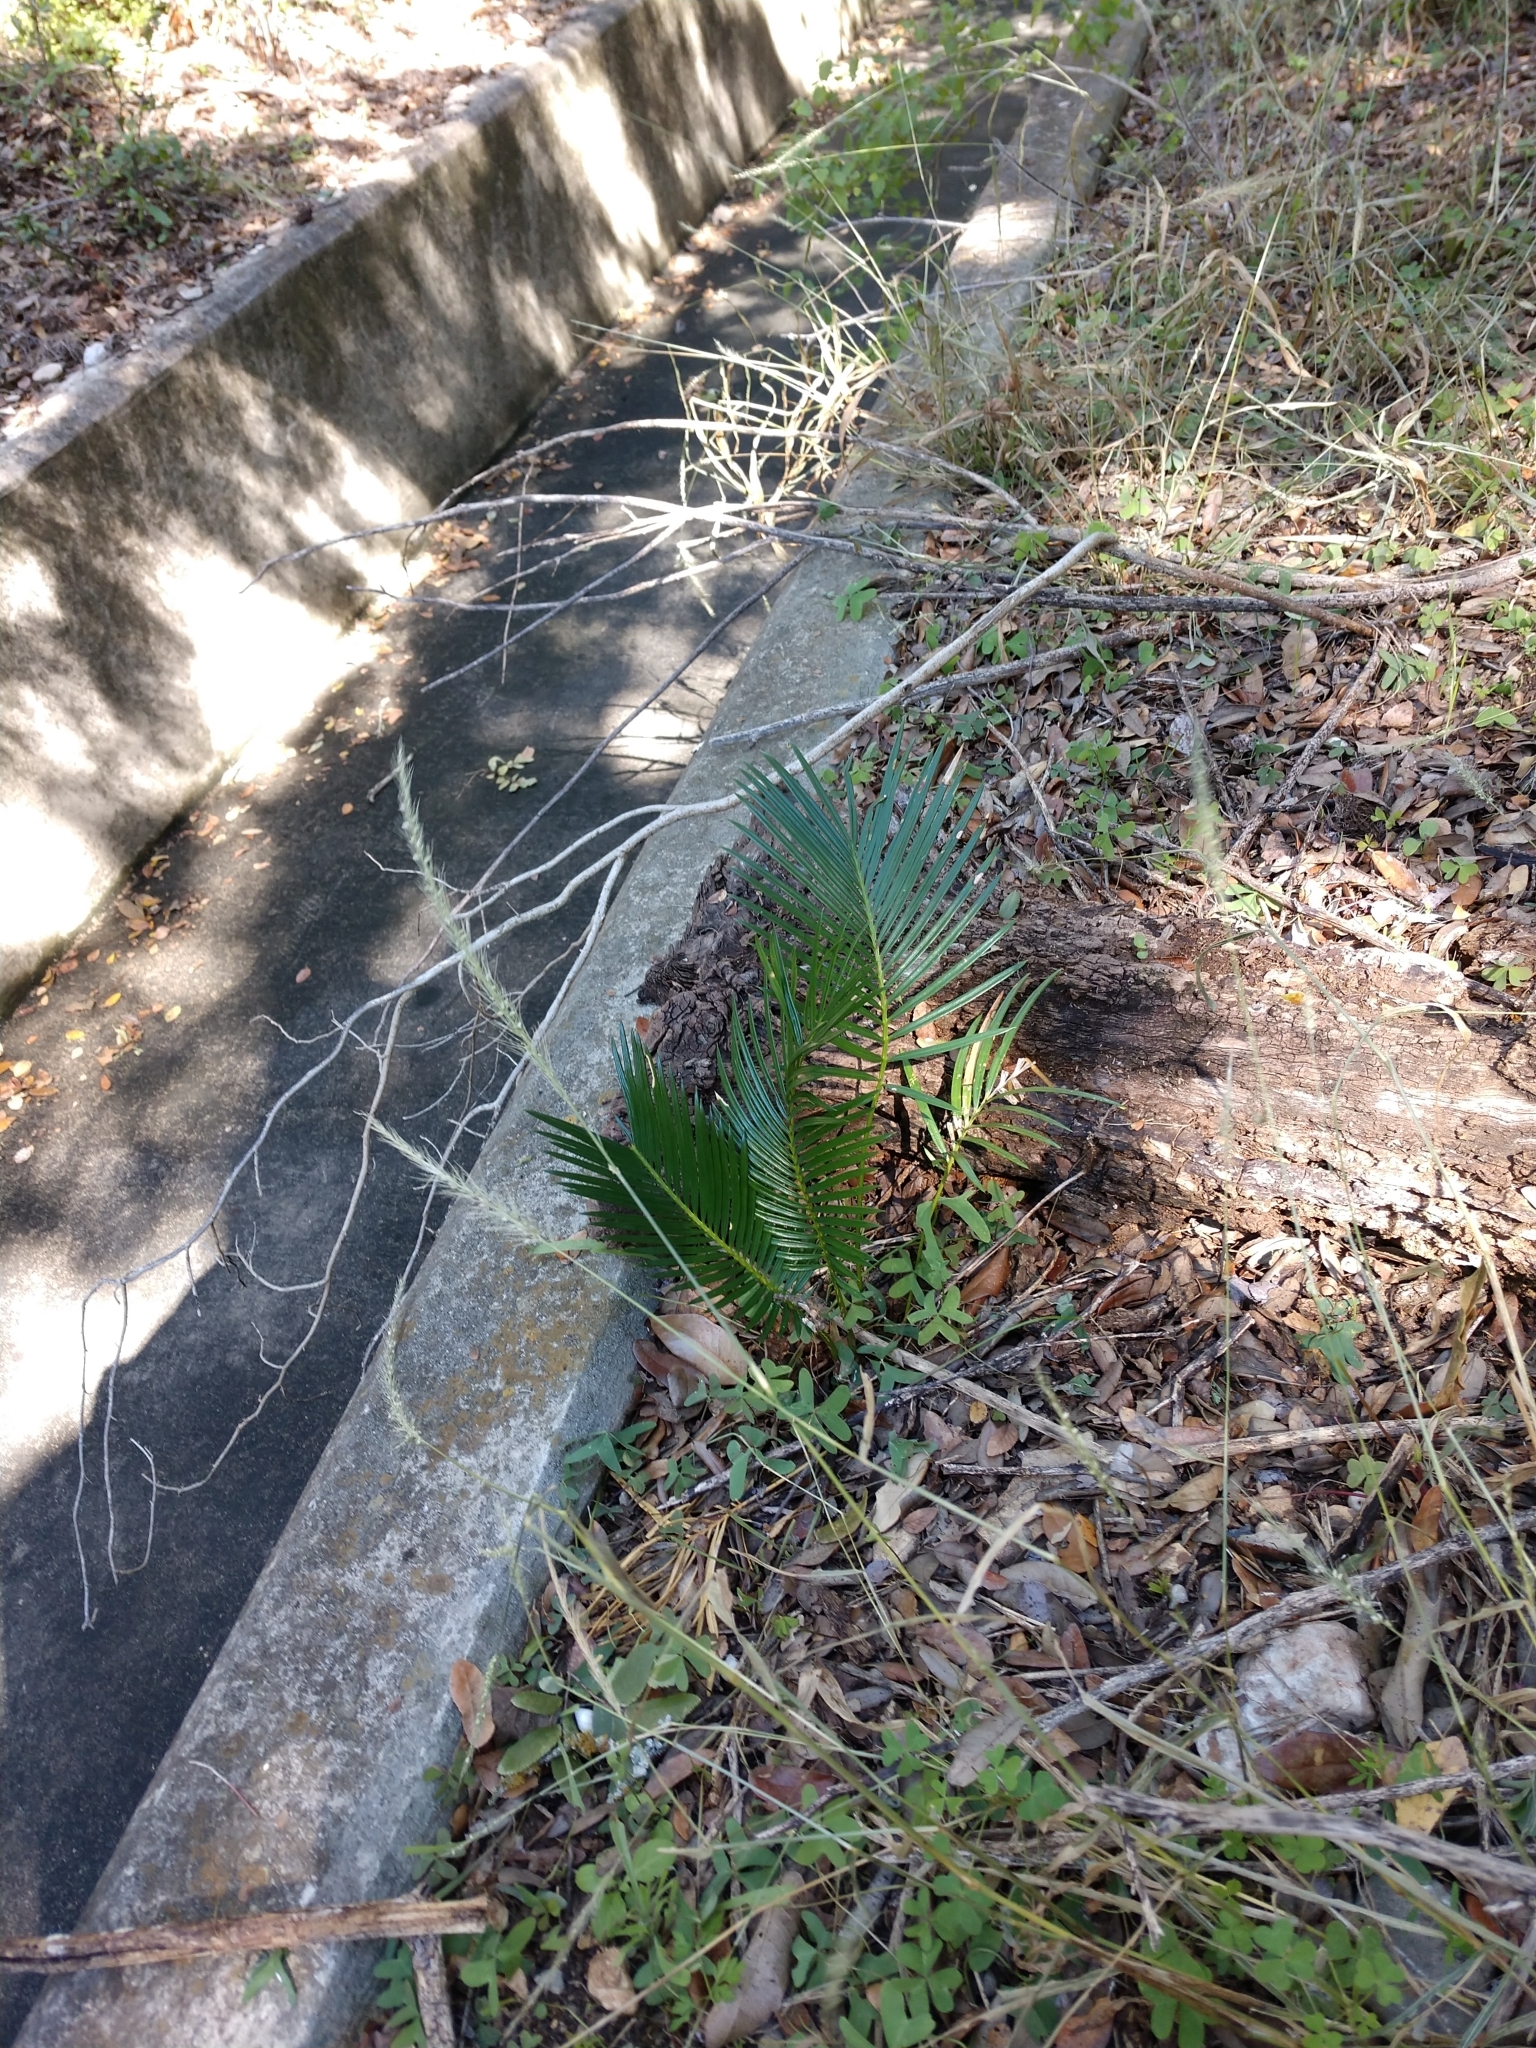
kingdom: Plantae
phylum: Tracheophyta
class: Cycadopsida
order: Cycadales
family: Cycadaceae
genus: Cycas
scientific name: Cycas revoluta
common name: Sago palm
